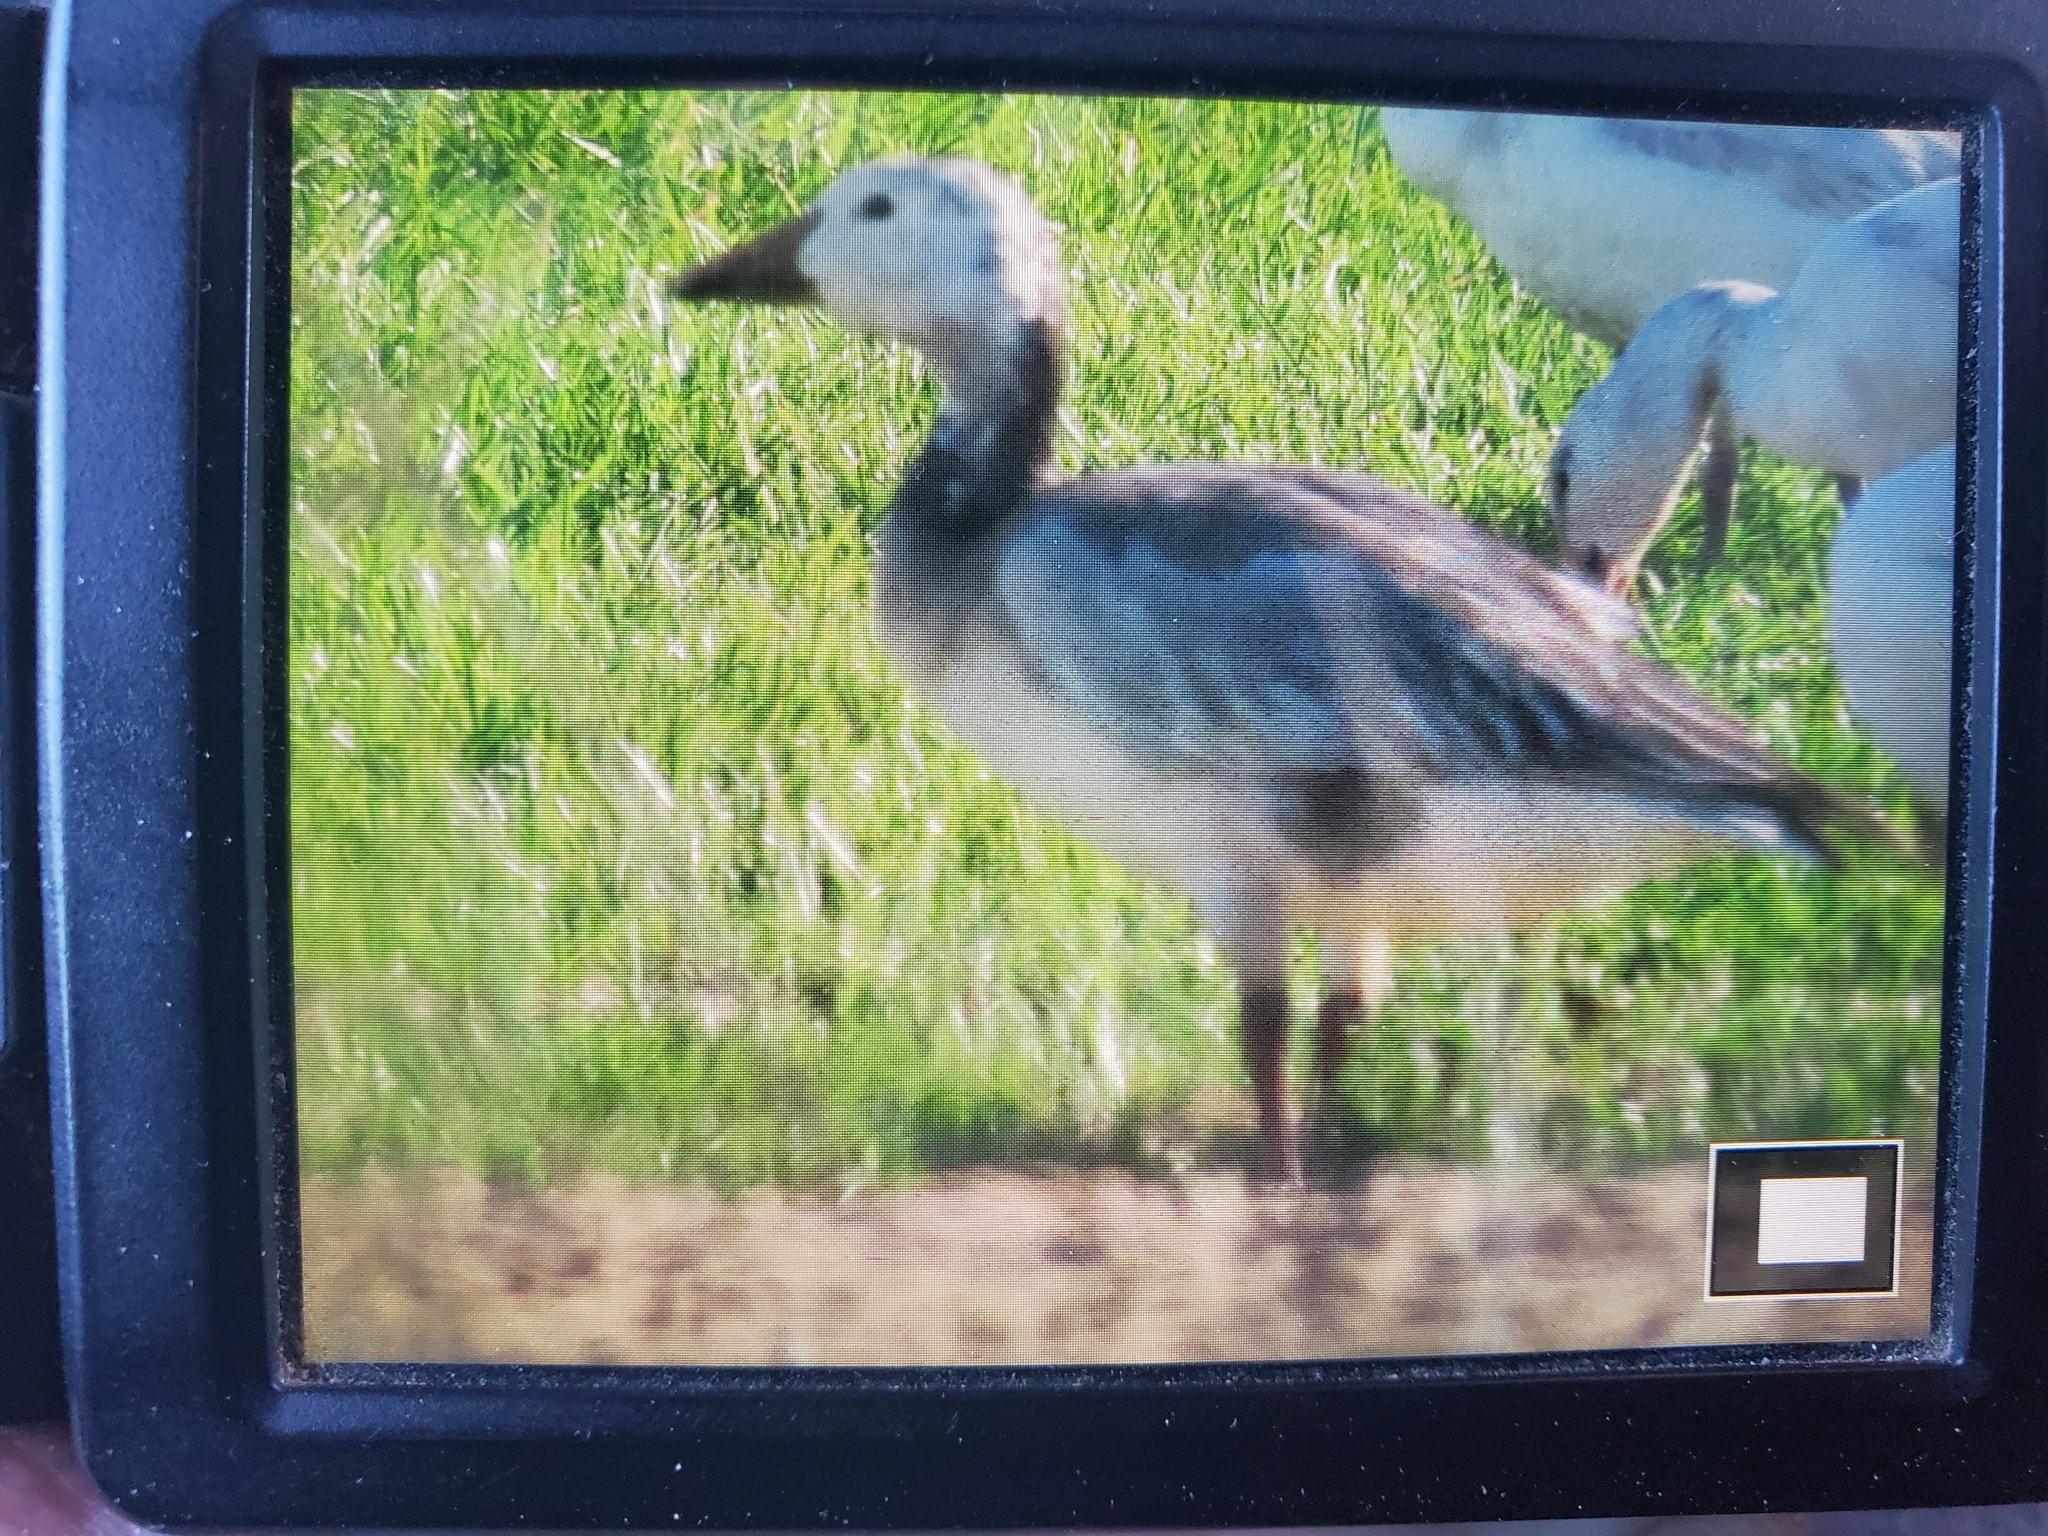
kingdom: Animalia
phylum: Chordata
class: Aves
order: Anseriformes
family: Anatidae
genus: Anser
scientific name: Anser caerulescens
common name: Snow goose
